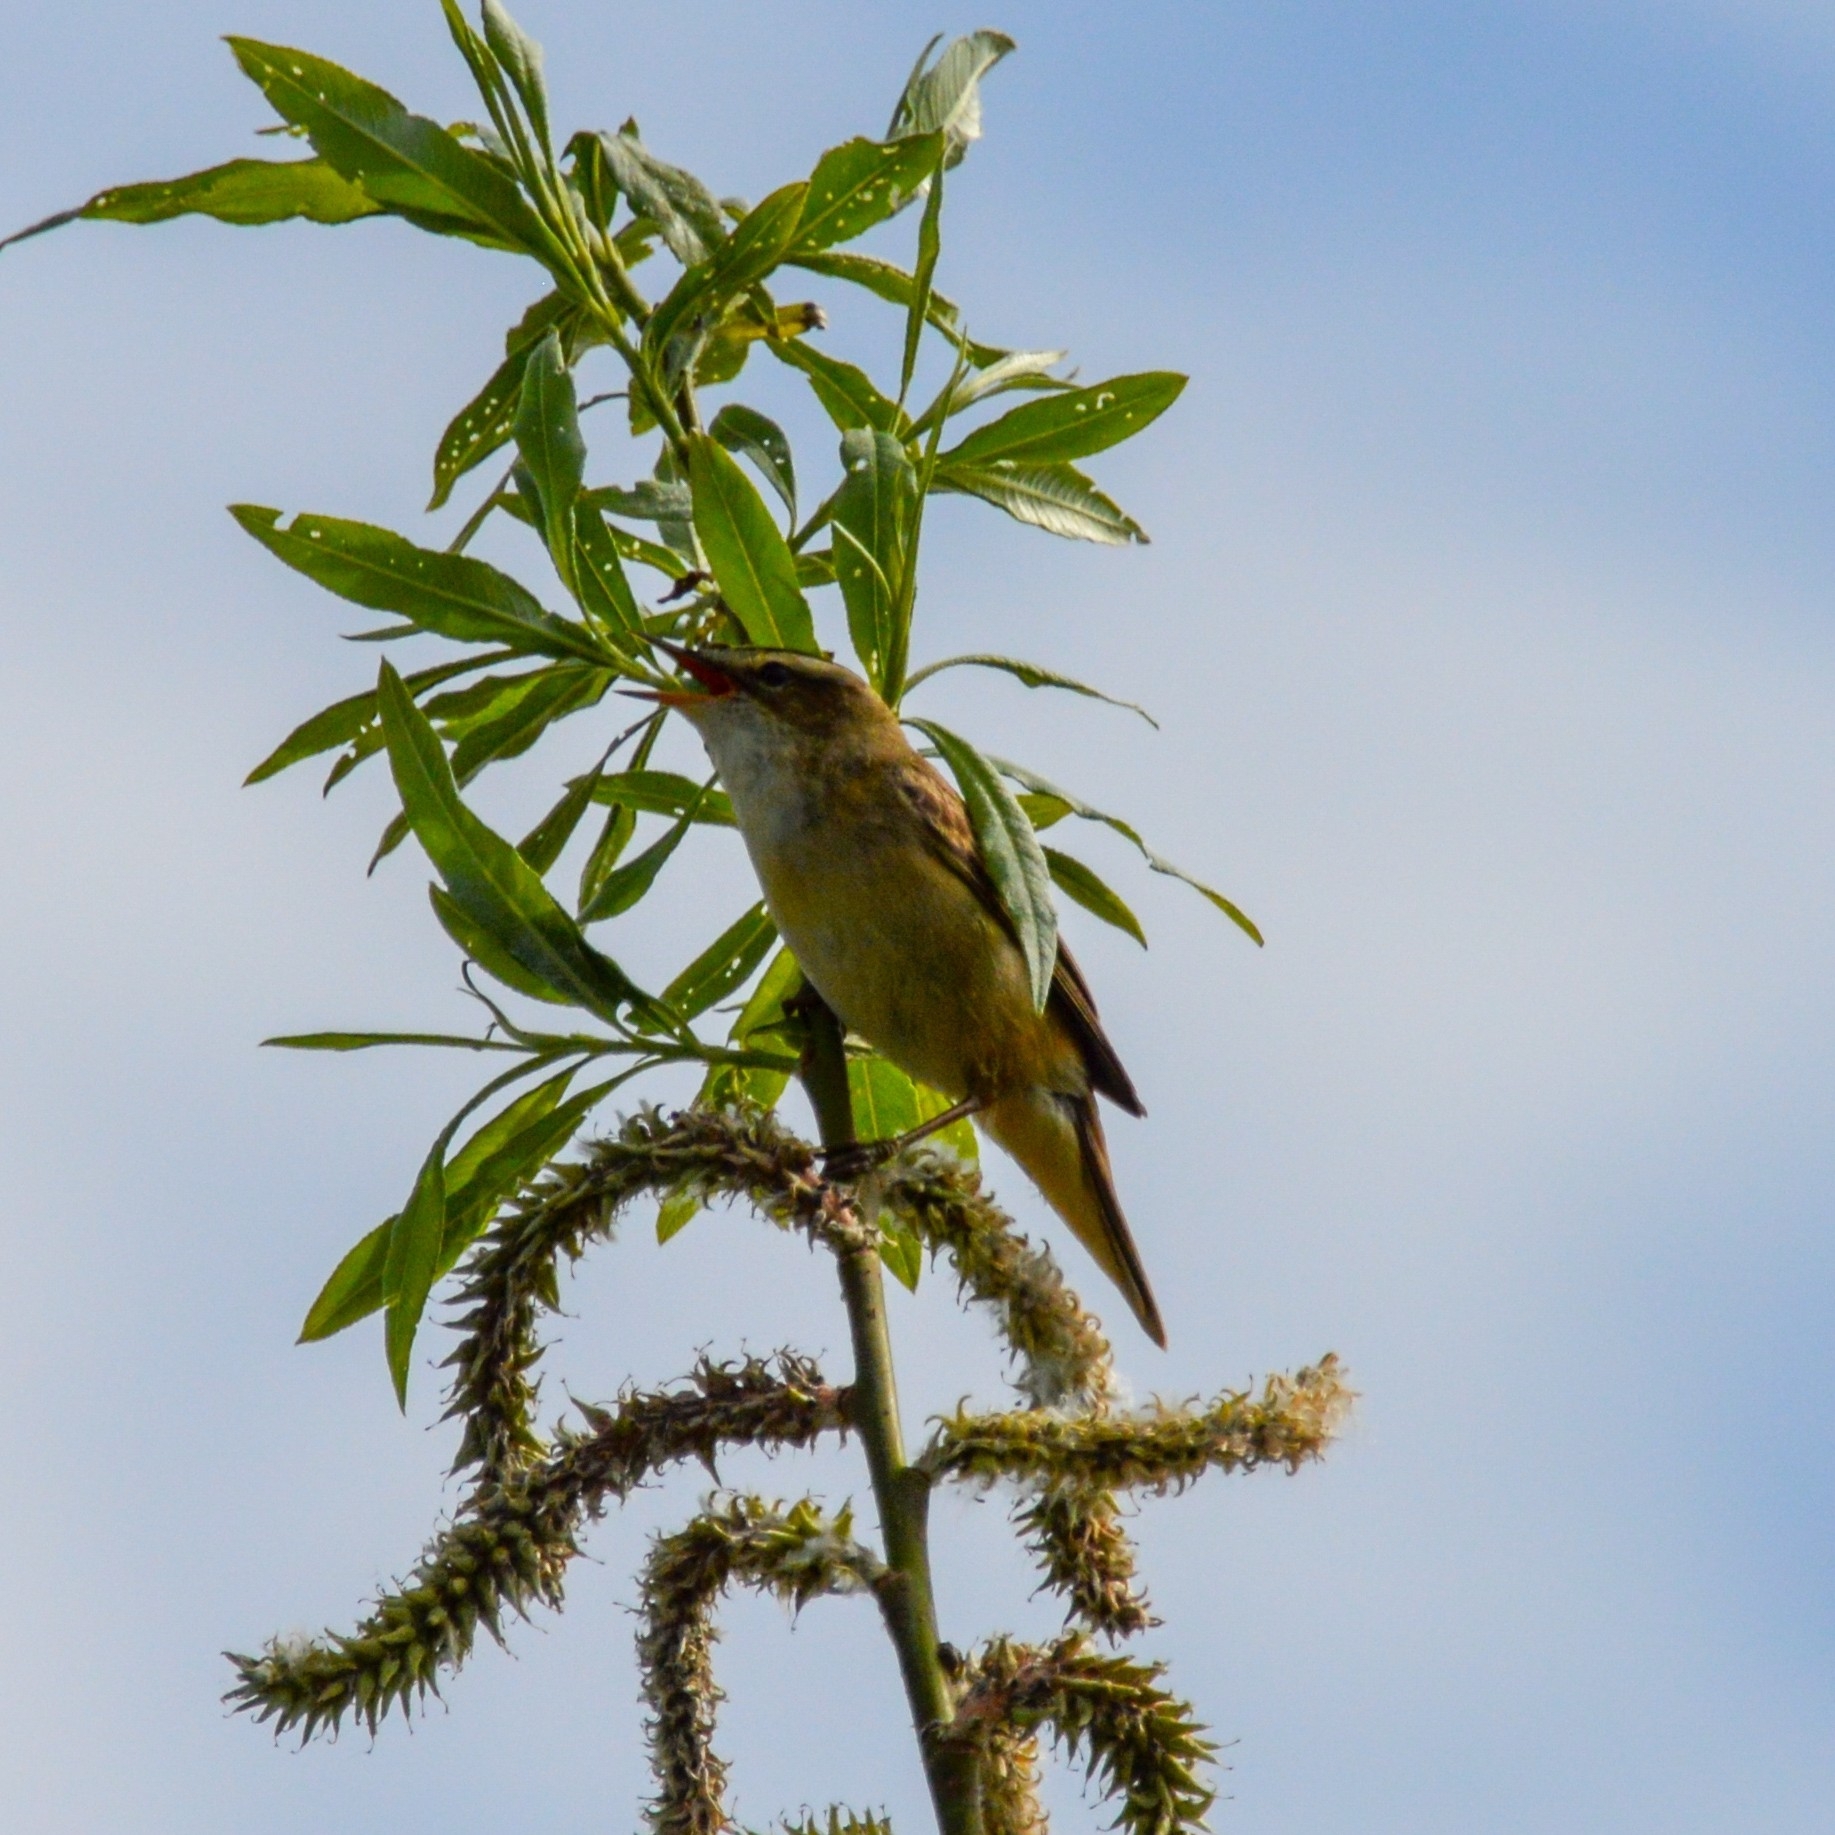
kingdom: Animalia
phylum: Chordata
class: Aves
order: Passeriformes
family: Acrocephalidae
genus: Acrocephalus
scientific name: Acrocephalus schoenobaenus
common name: Sedge warbler
